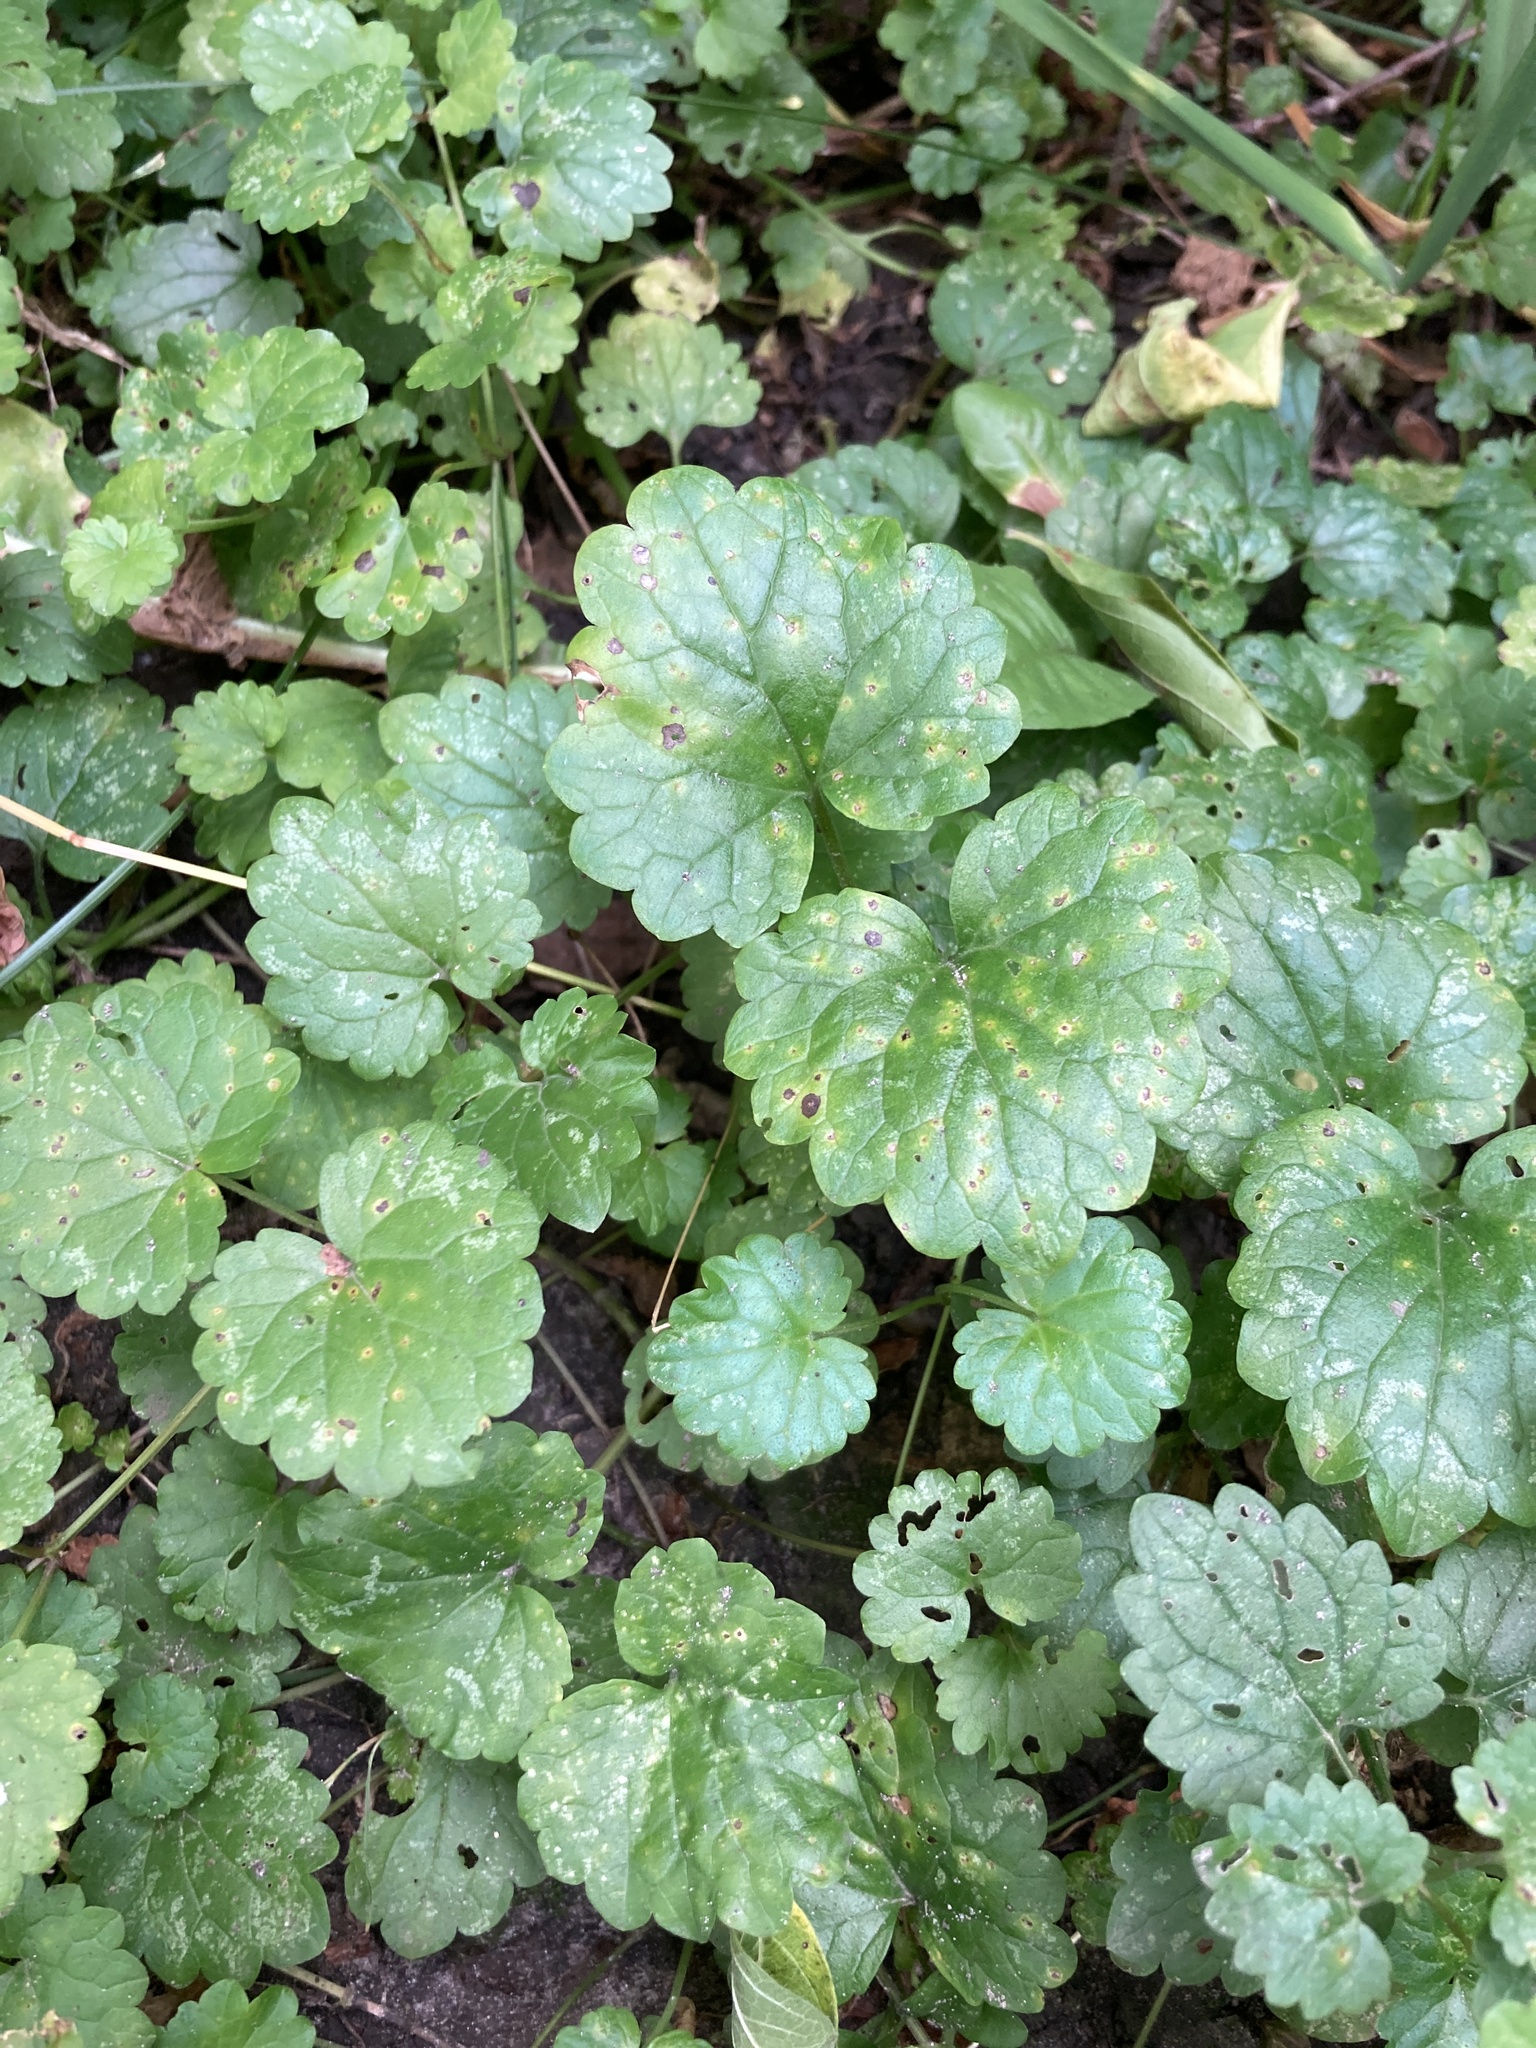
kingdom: Plantae
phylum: Tracheophyta
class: Magnoliopsida
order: Lamiales
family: Lamiaceae
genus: Glechoma
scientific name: Glechoma hederacea
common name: Ground ivy
